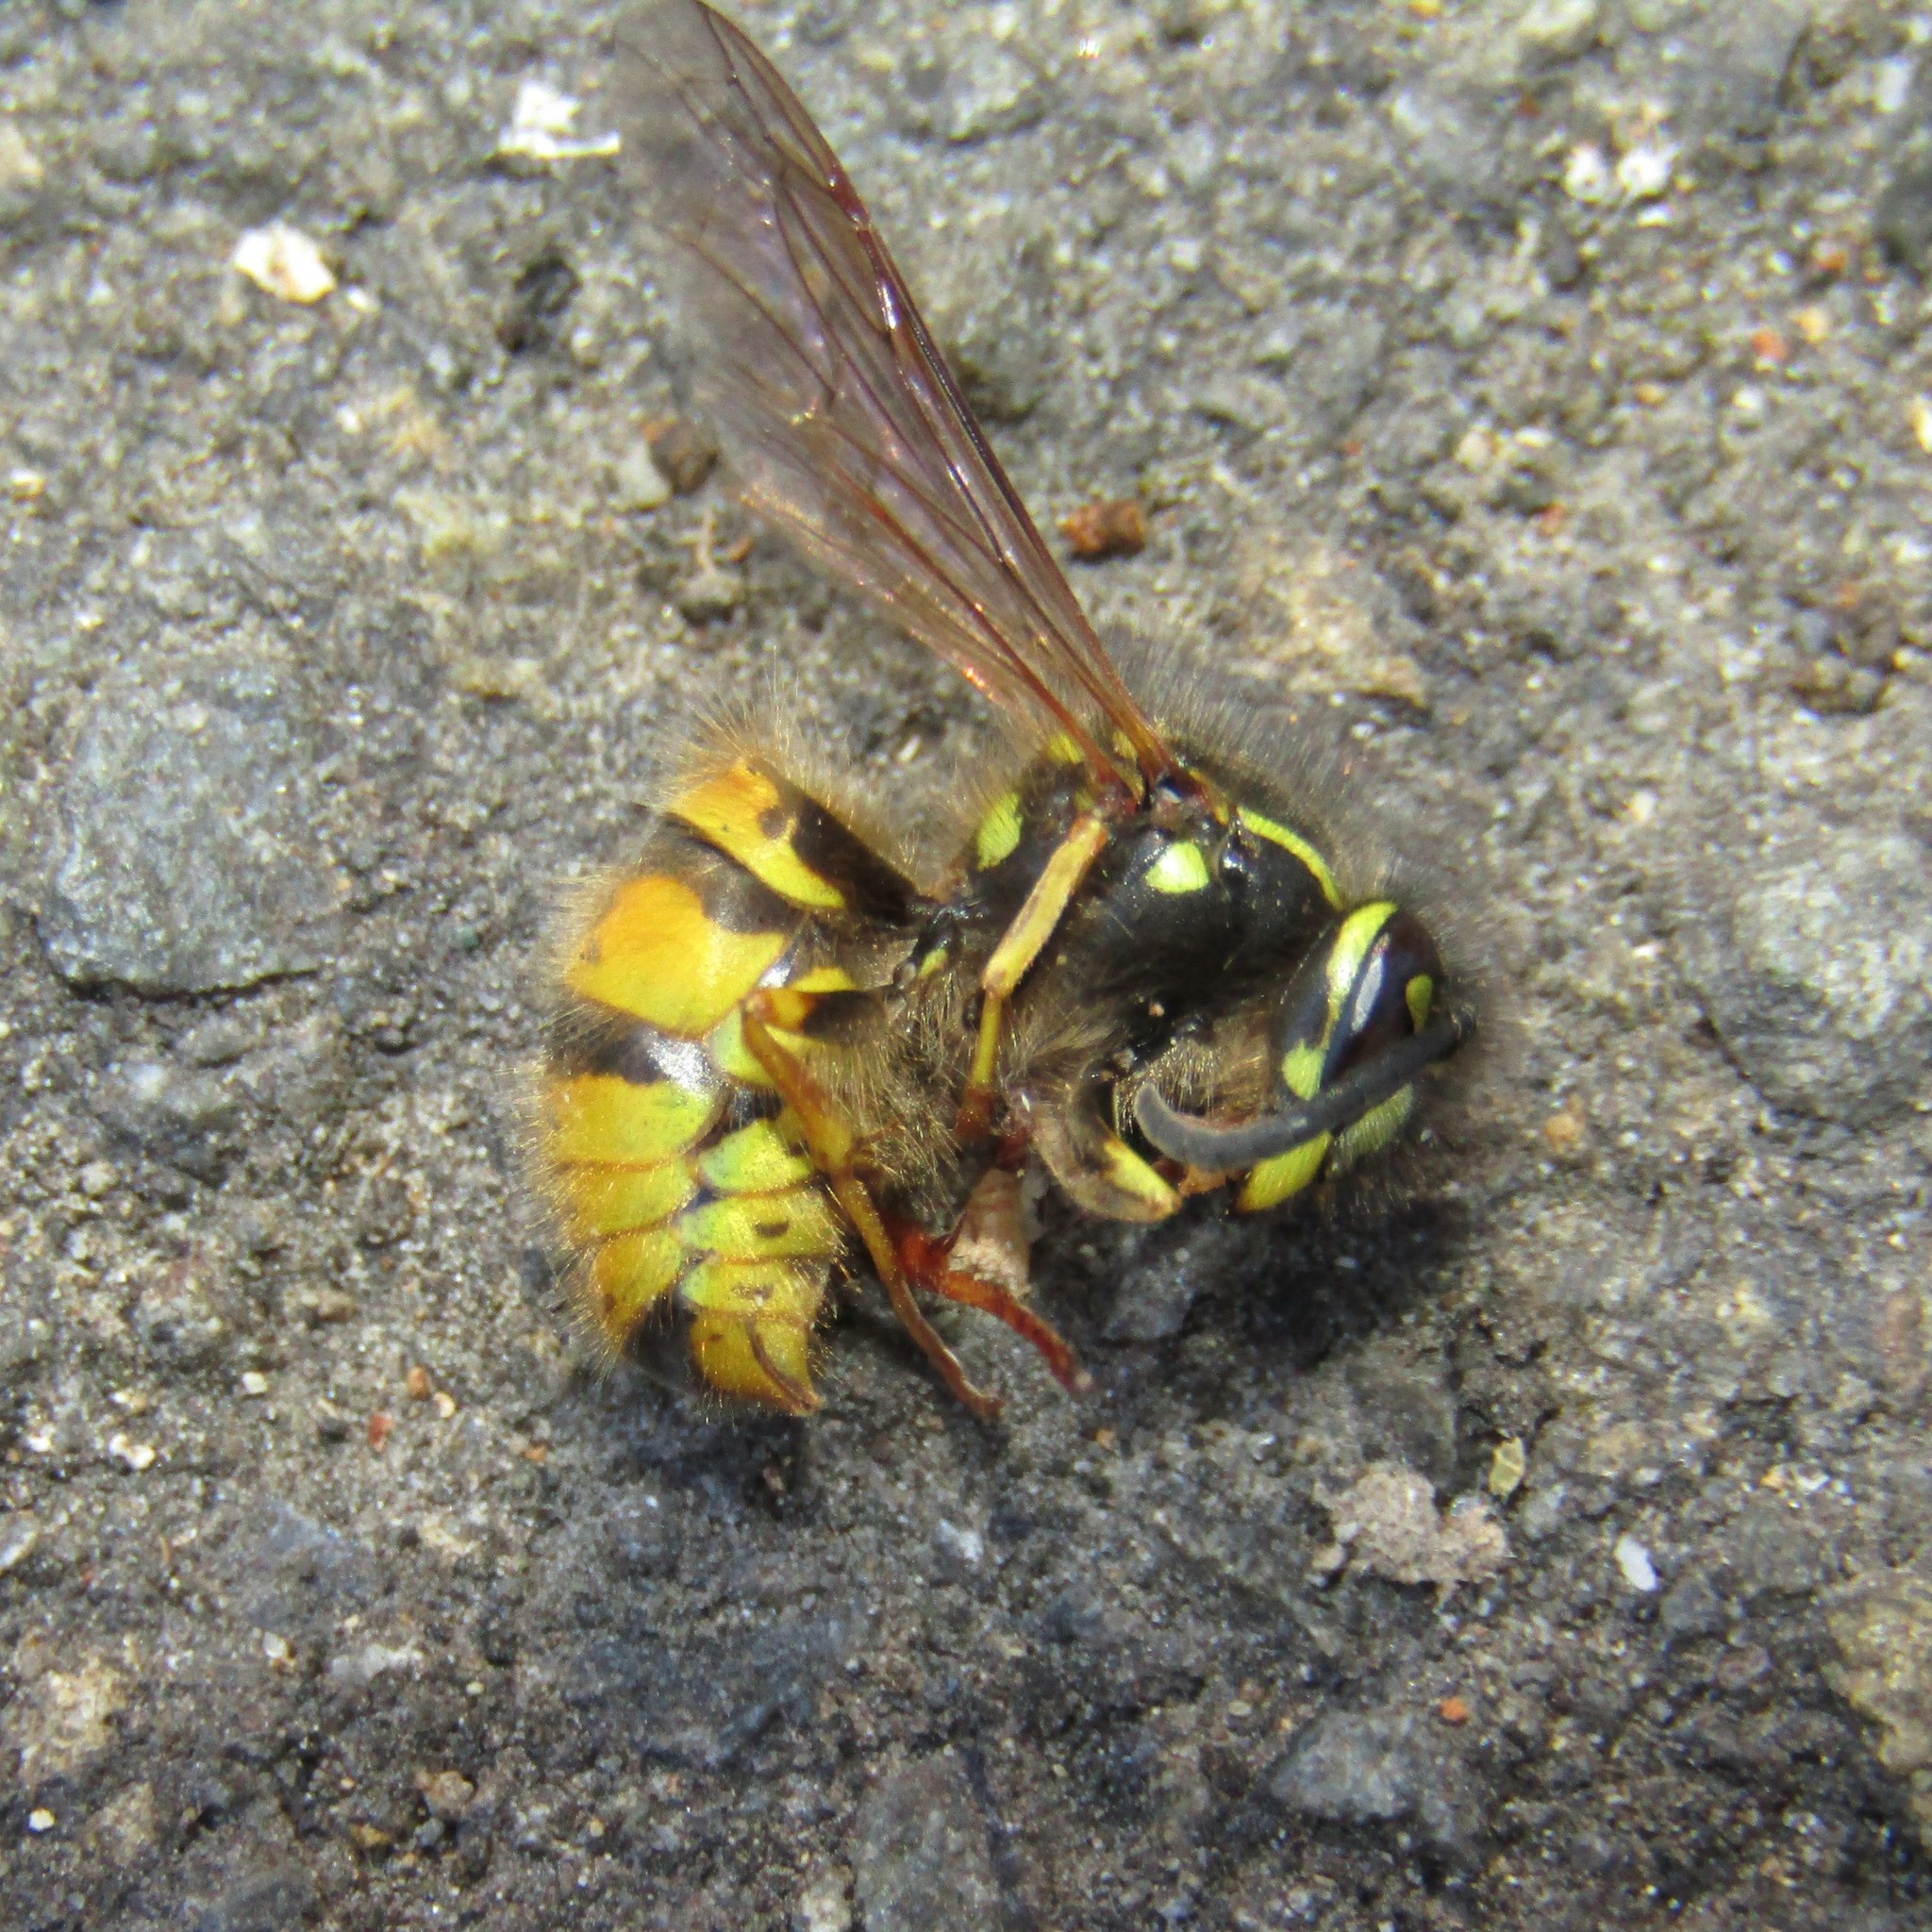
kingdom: Animalia
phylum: Arthropoda
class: Insecta
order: Hymenoptera
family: Vespidae
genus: Vespula
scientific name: Vespula vulgaris
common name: Common wasp
